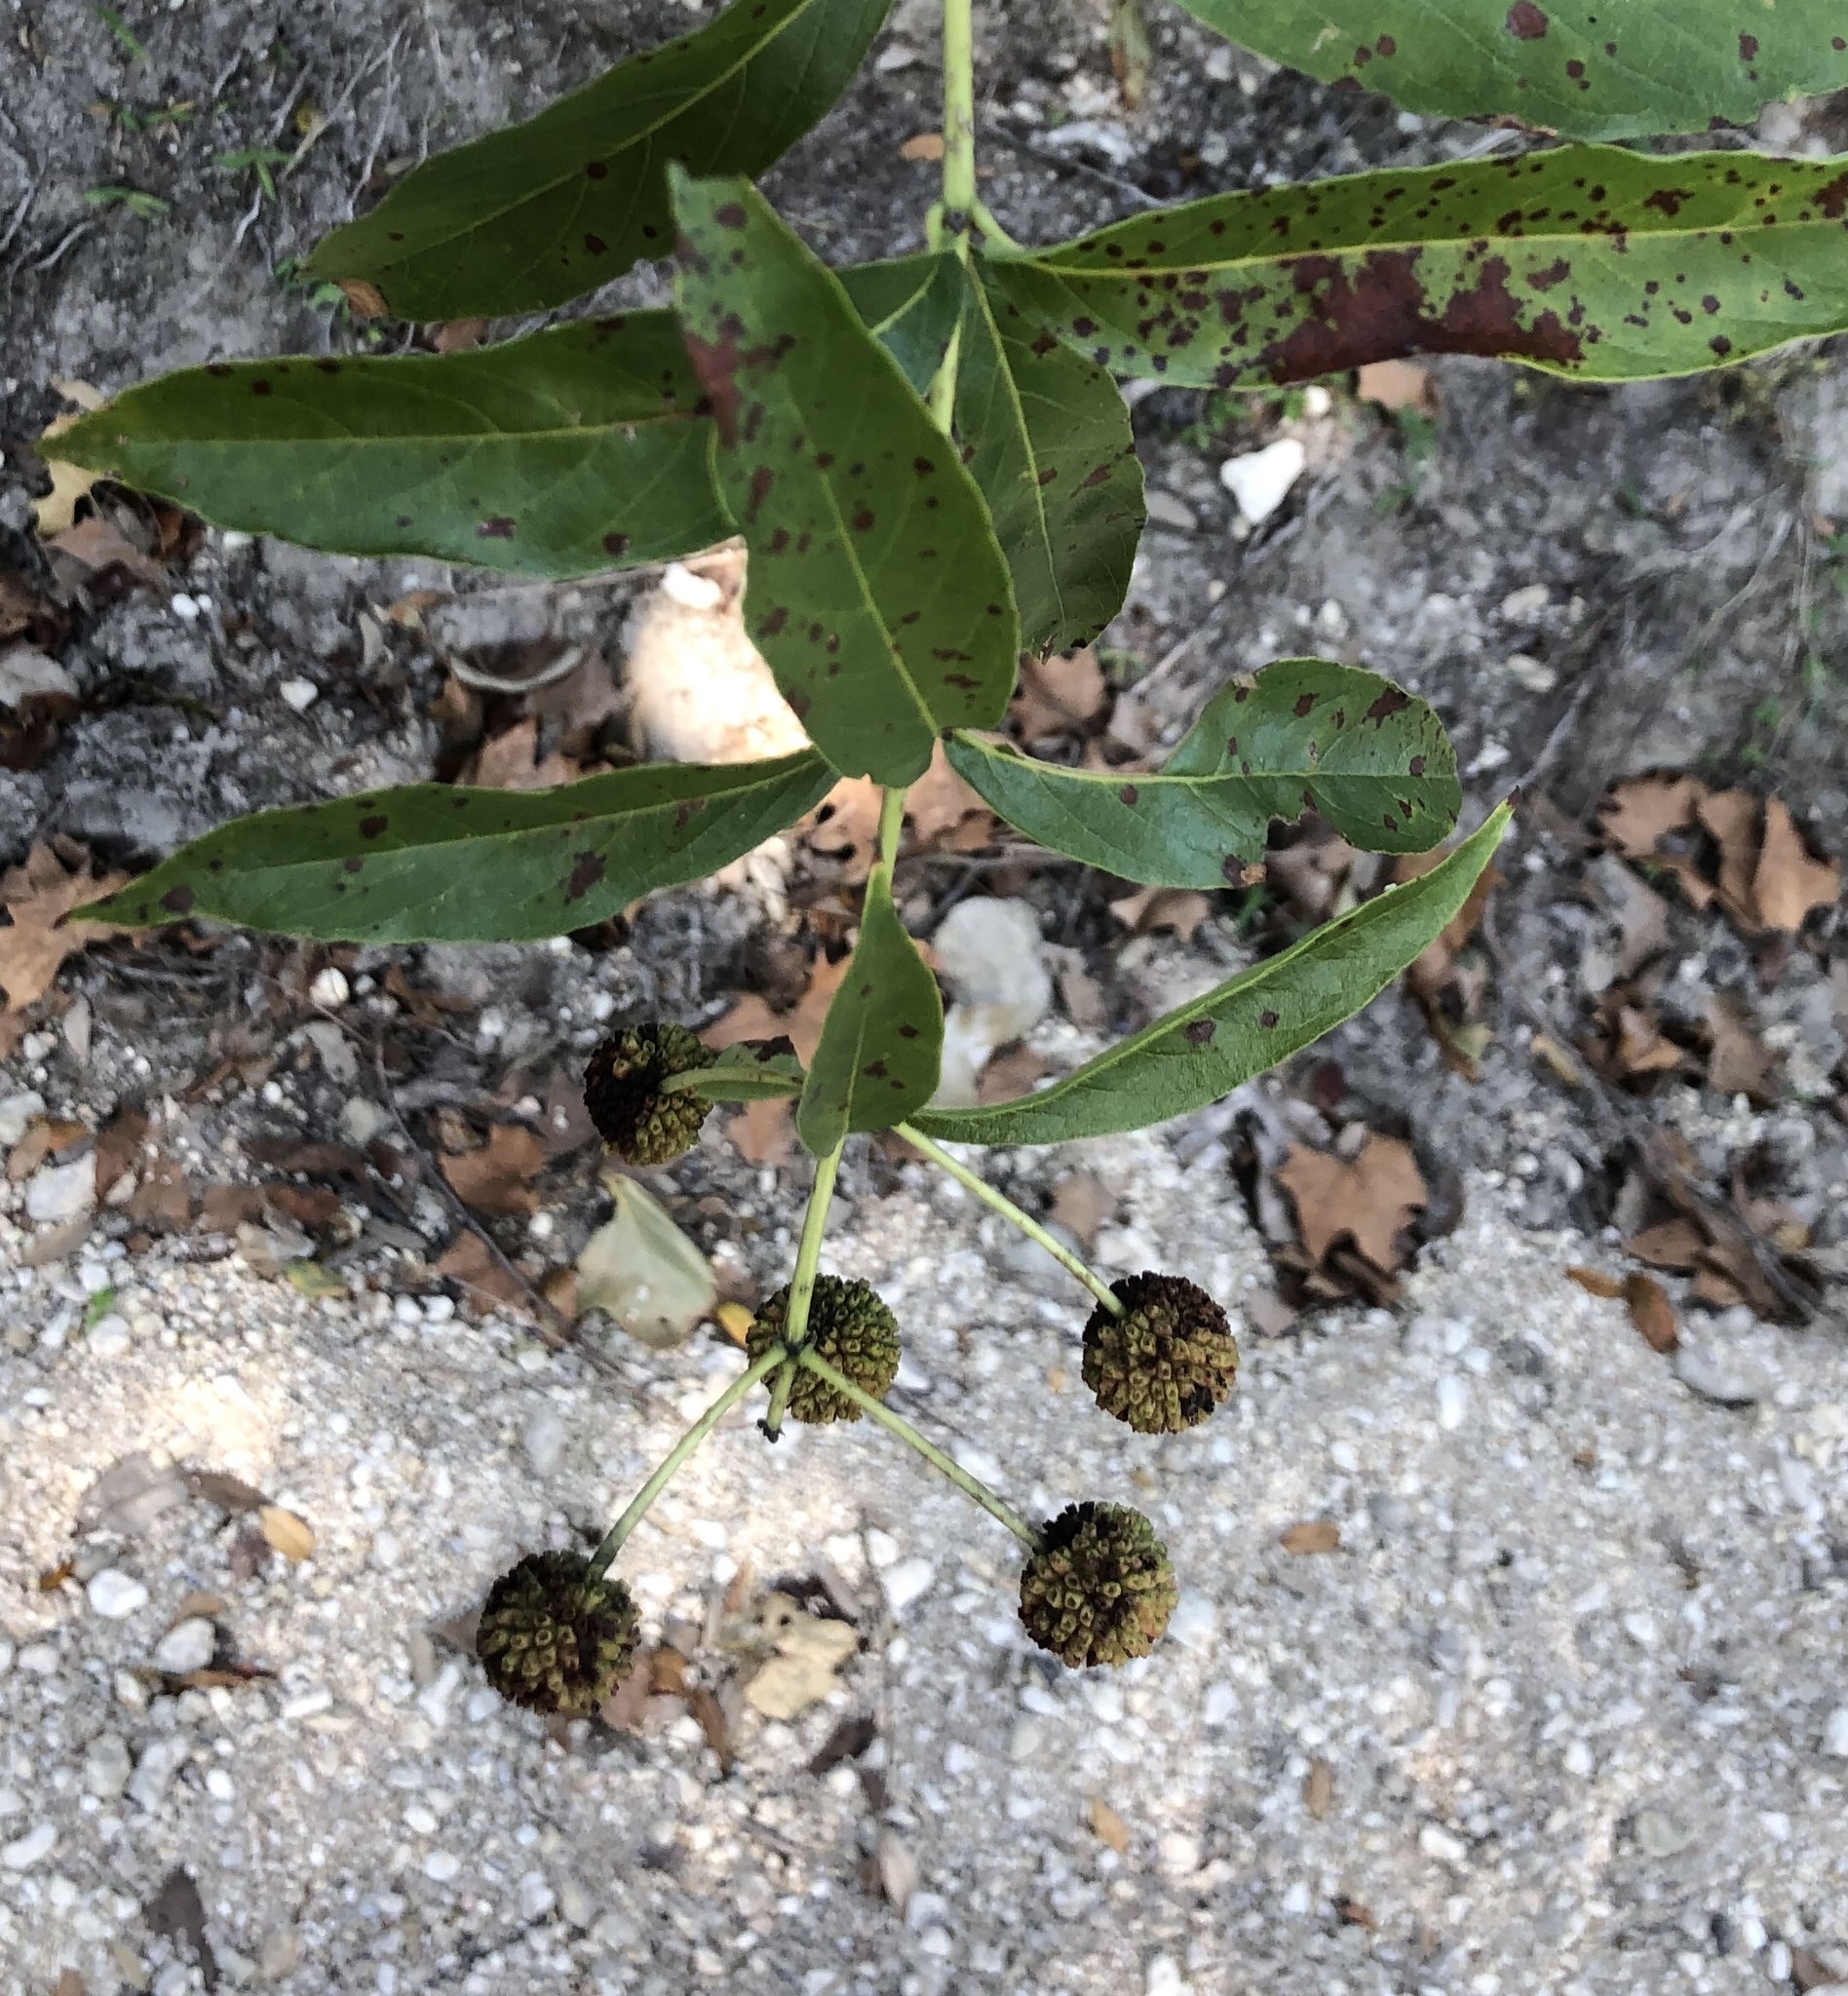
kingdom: Plantae
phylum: Tracheophyta
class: Magnoliopsida
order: Gentianales
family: Rubiaceae
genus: Cephalanthus
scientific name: Cephalanthus occidentalis
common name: Button-willow
